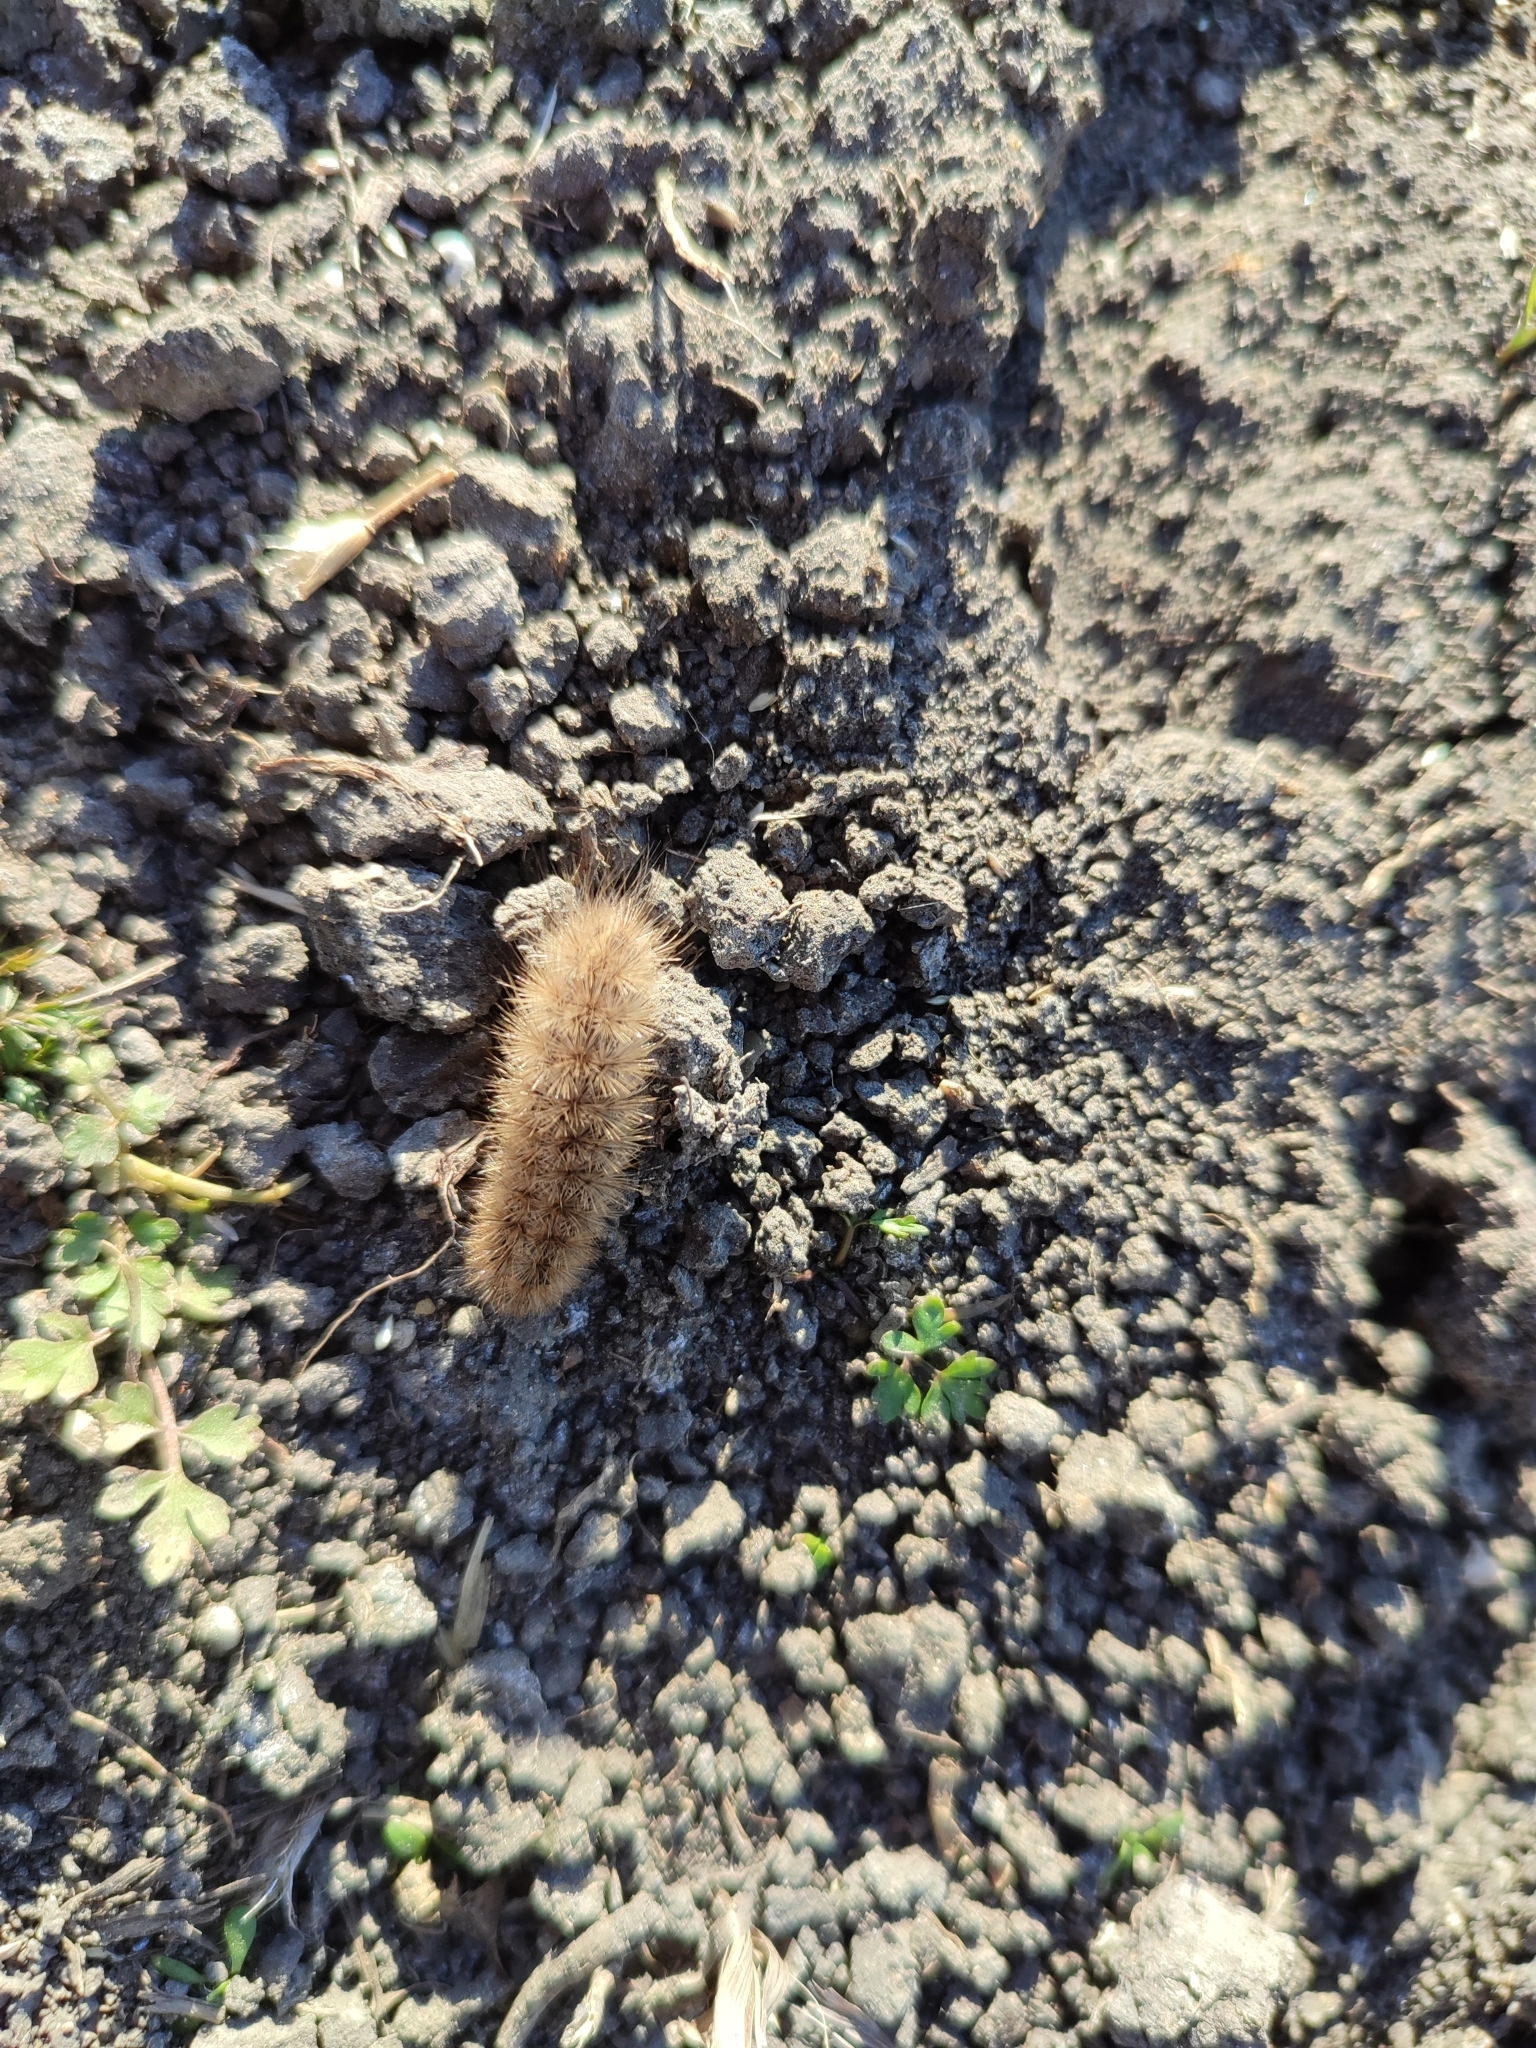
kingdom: Animalia
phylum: Arthropoda
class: Insecta
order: Lepidoptera
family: Erebidae
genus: Phragmatobia
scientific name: Phragmatobia fuliginosa
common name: Ruby tiger
